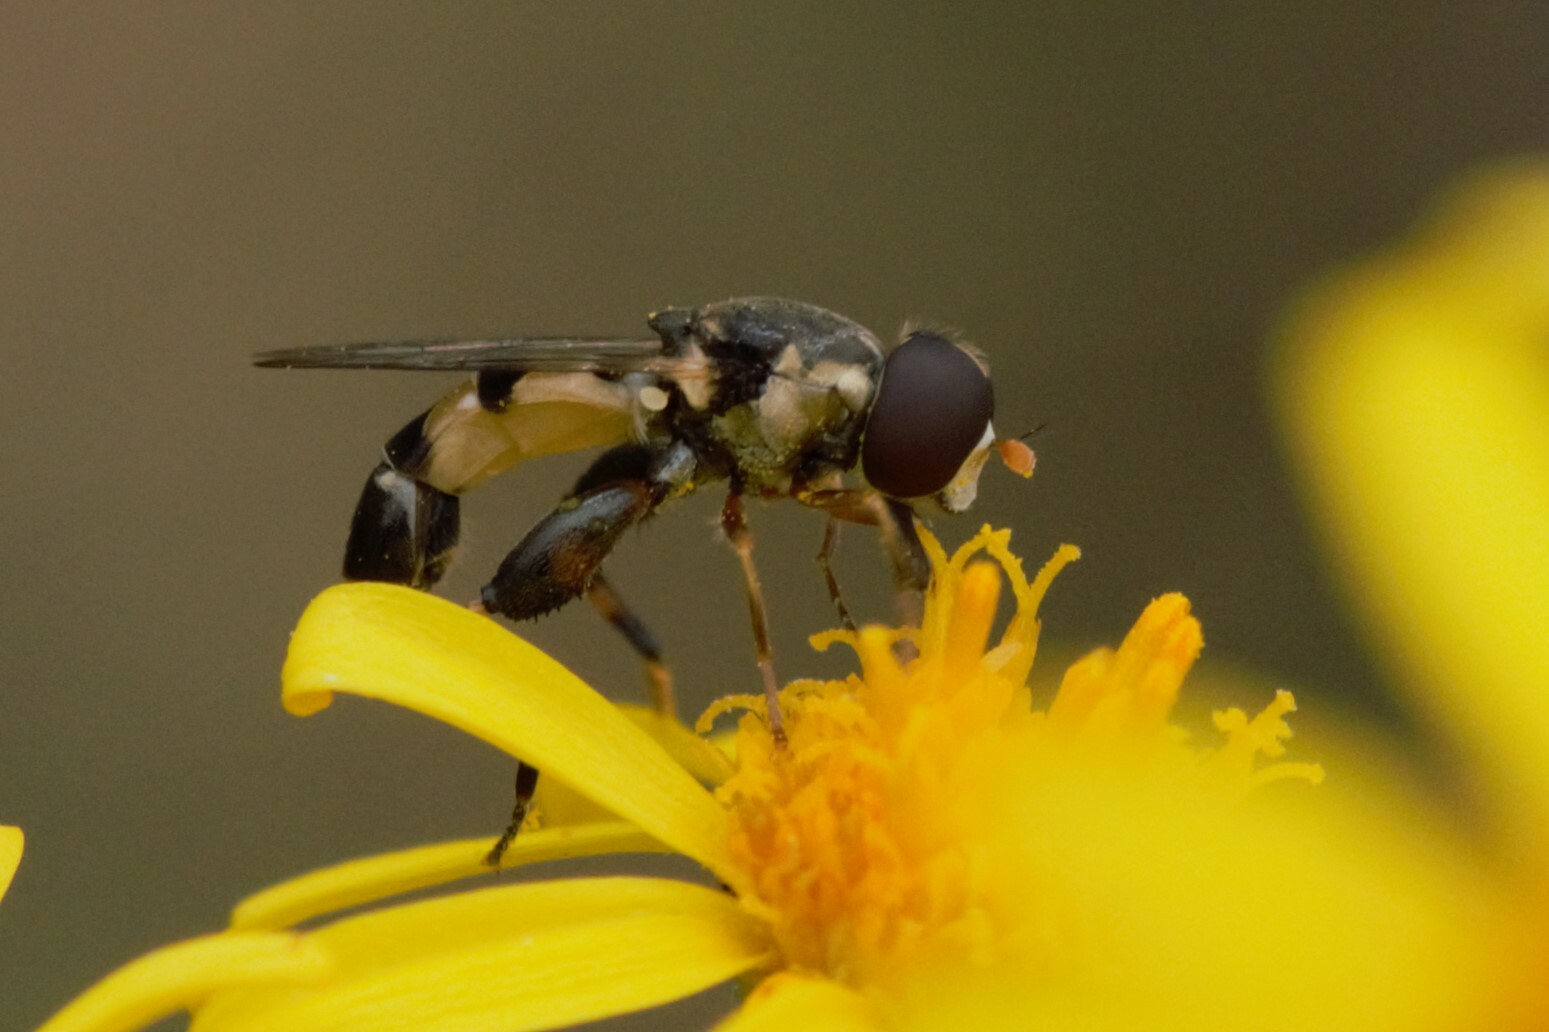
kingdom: Animalia
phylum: Arthropoda
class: Insecta
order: Diptera
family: Syrphidae
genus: Syritta
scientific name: Syritta pipiens
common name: Hover fly
